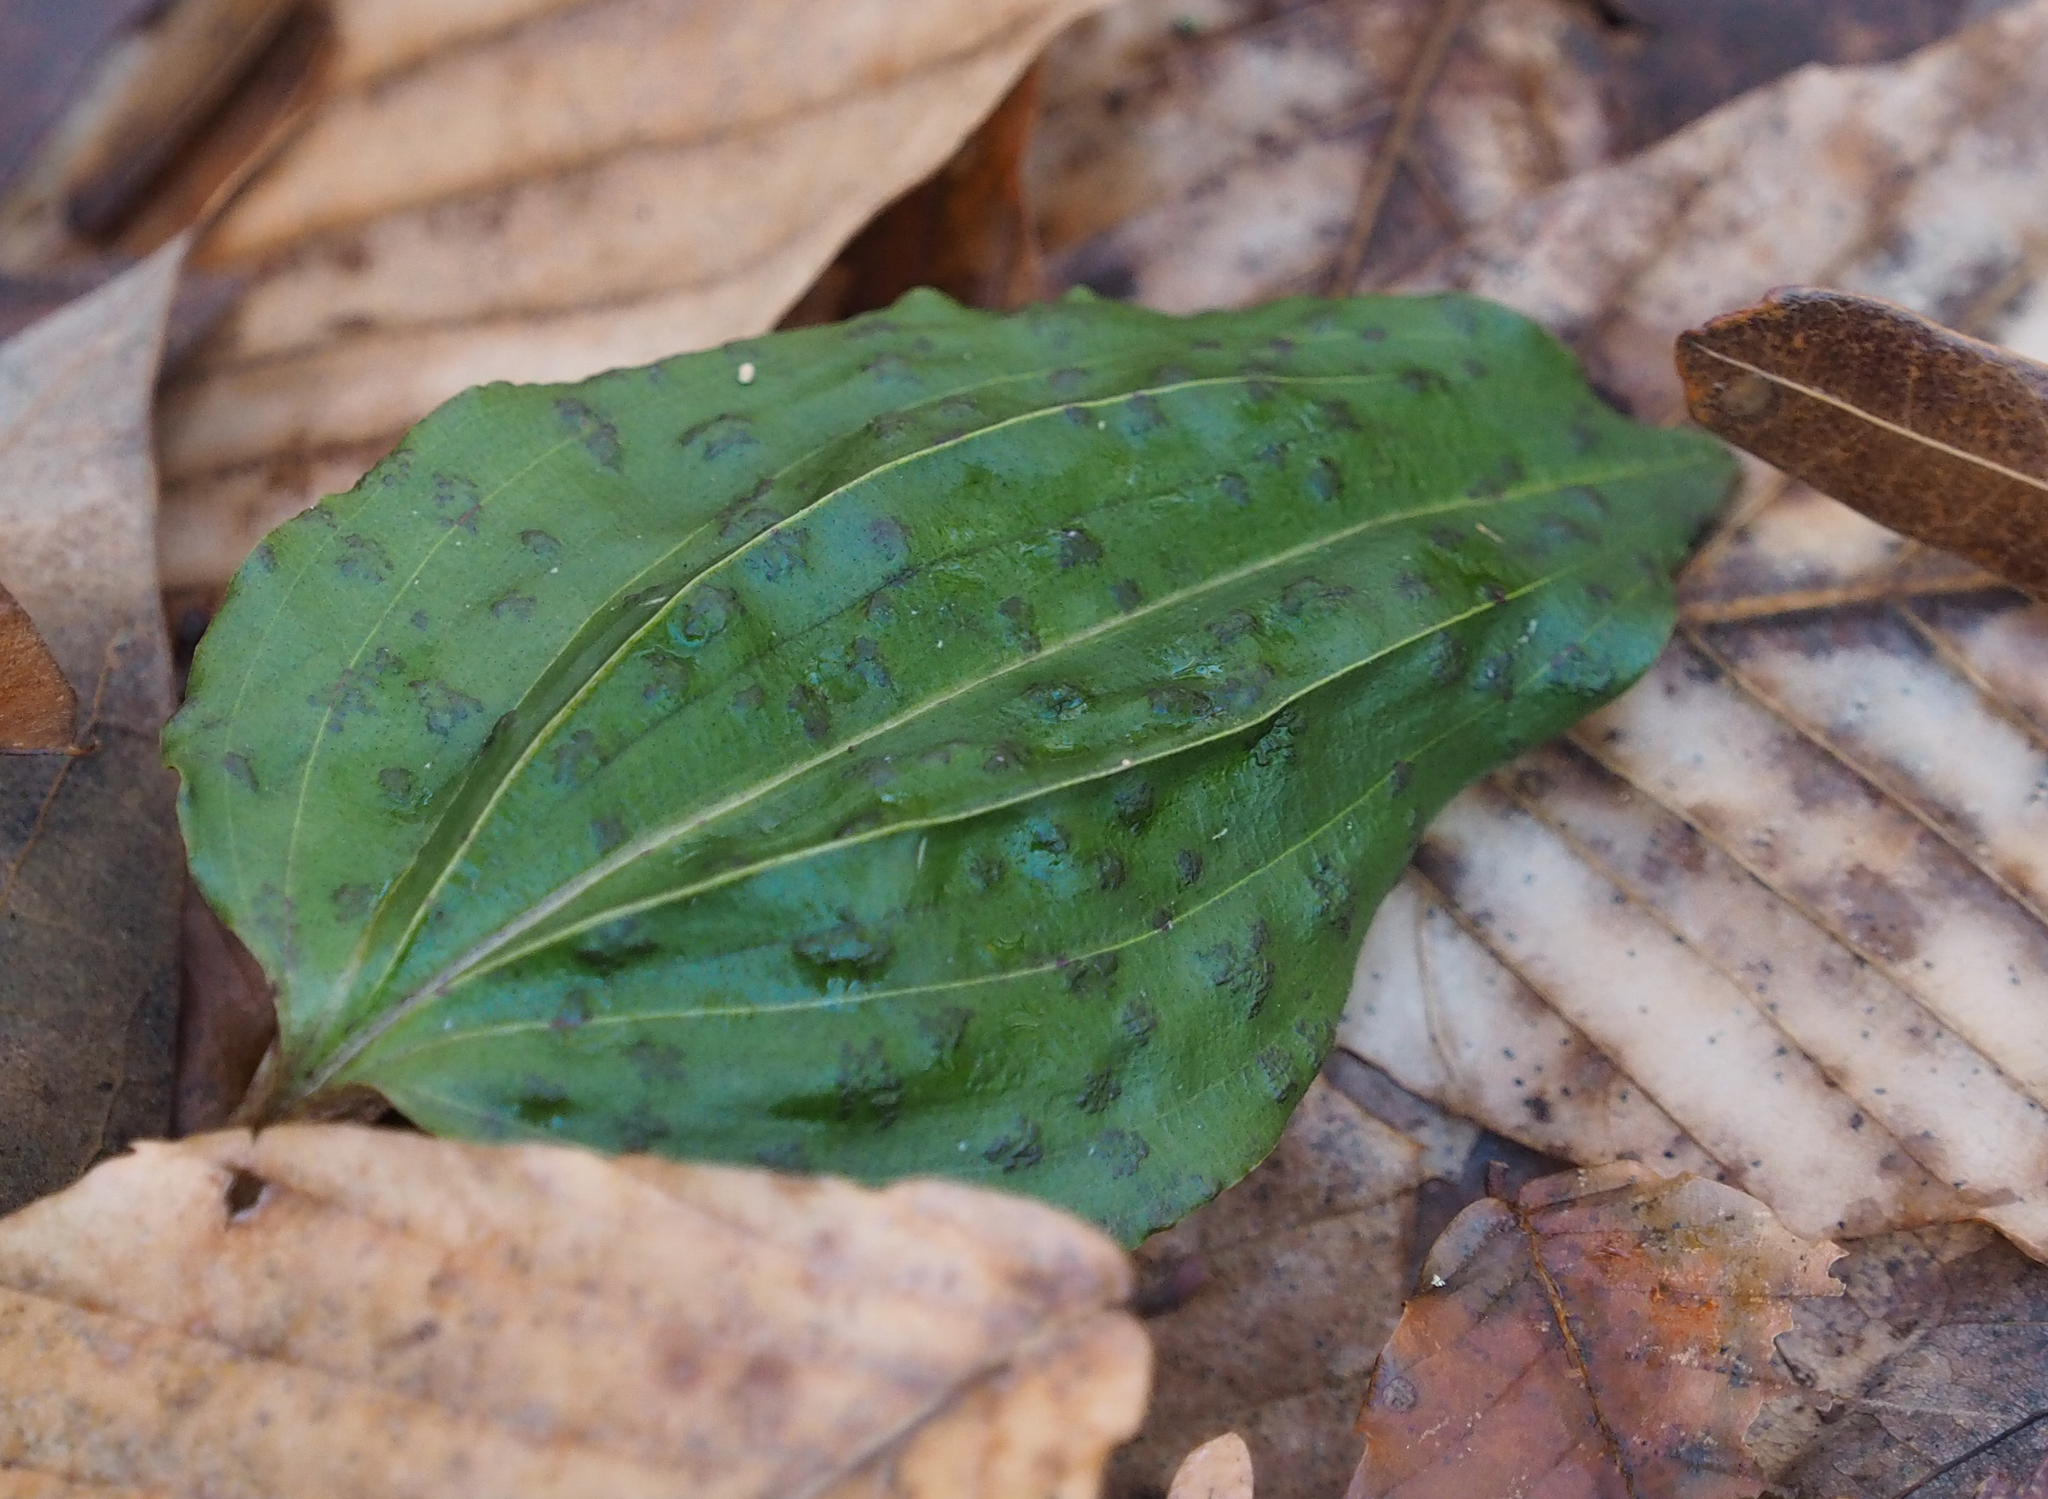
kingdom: Plantae
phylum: Tracheophyta
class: Liliopsida
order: Asparagales
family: Orchidaceae
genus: Tipularia
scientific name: Tipularia discolor
